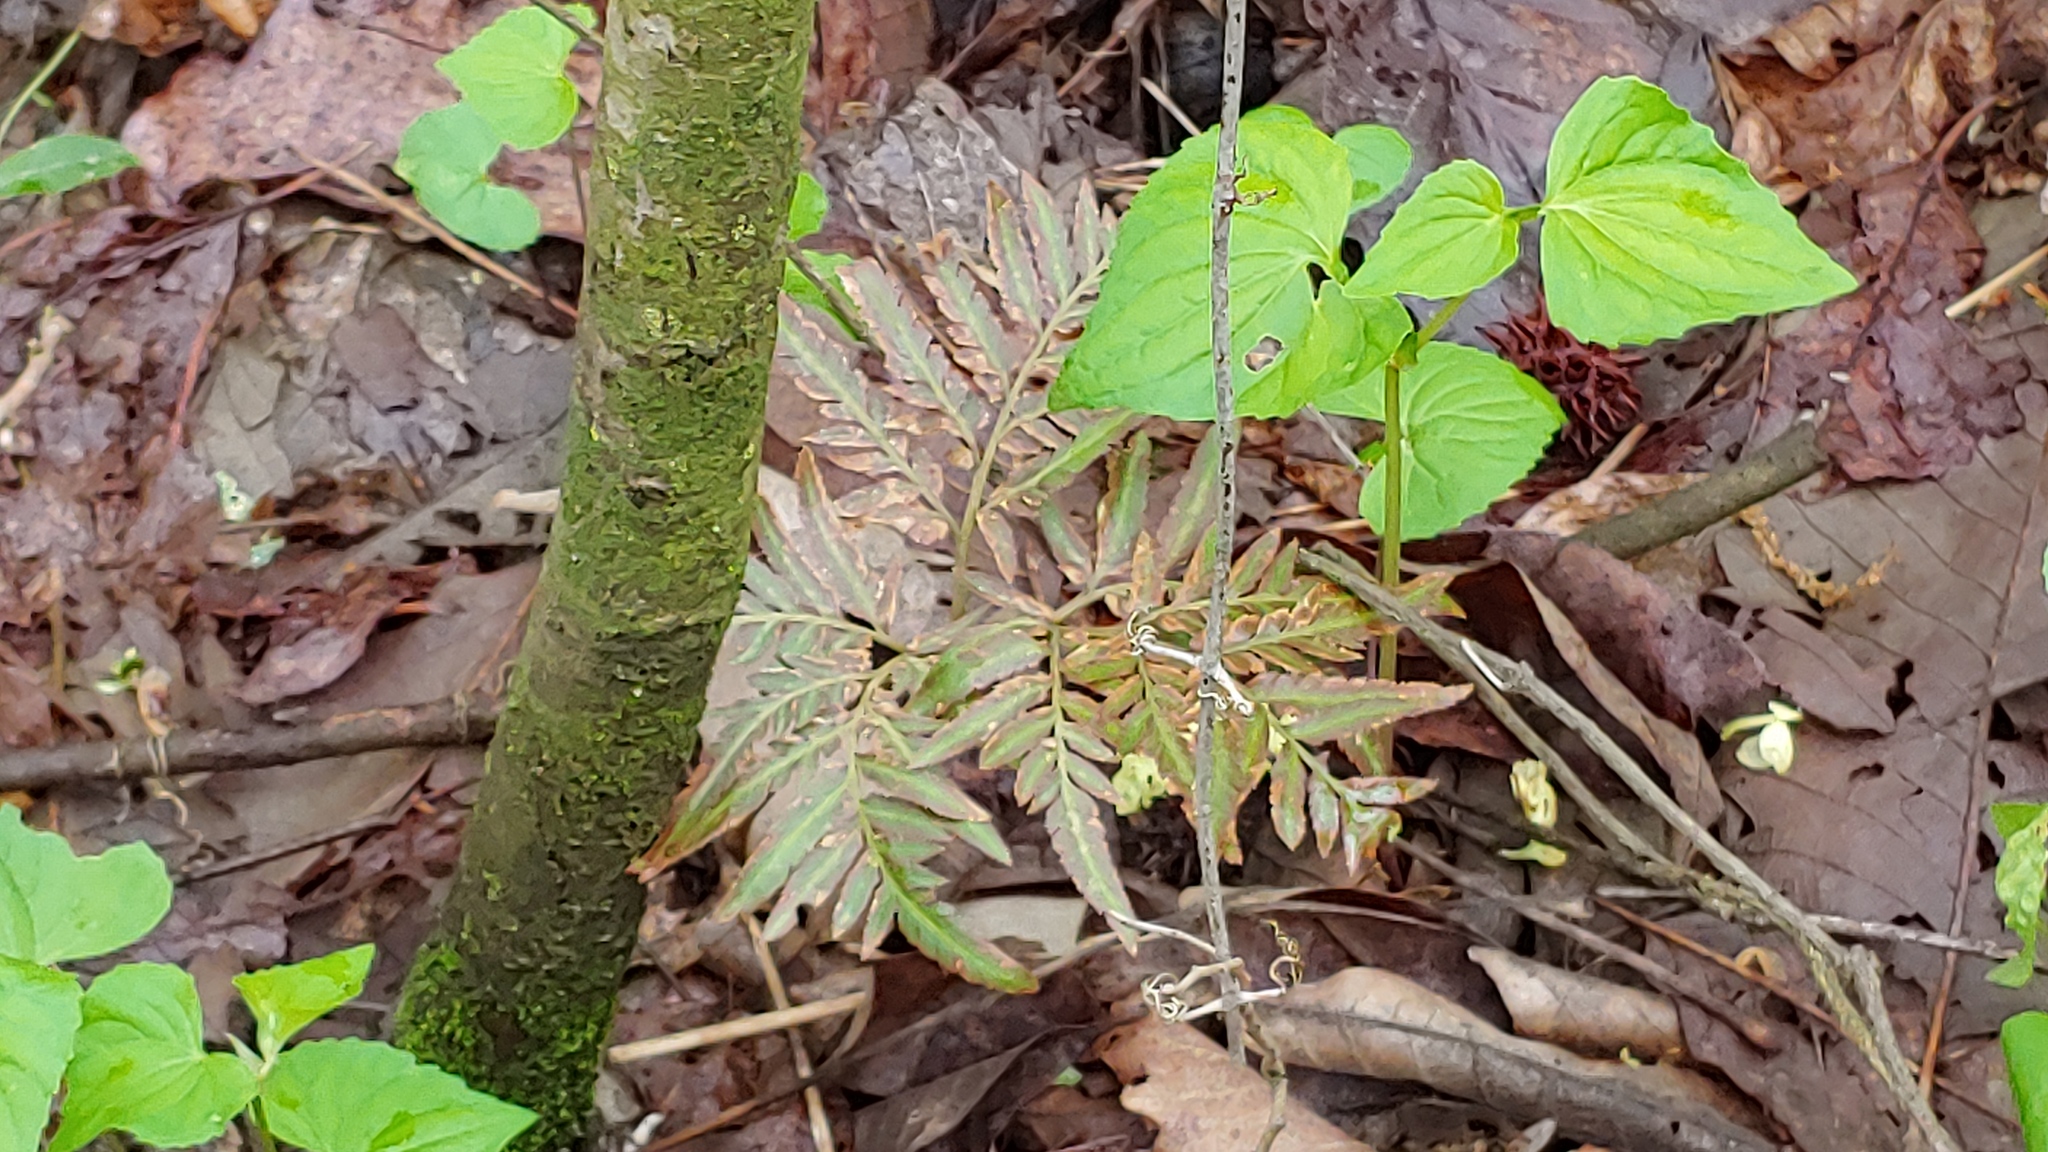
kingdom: Plantae
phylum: Tracheophyta
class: Polypodiopsida
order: Ophioglossales
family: Ophioglossaceae
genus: Sceptridium
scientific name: Sceptridium dissectum
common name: Cut-leaved grapefern
